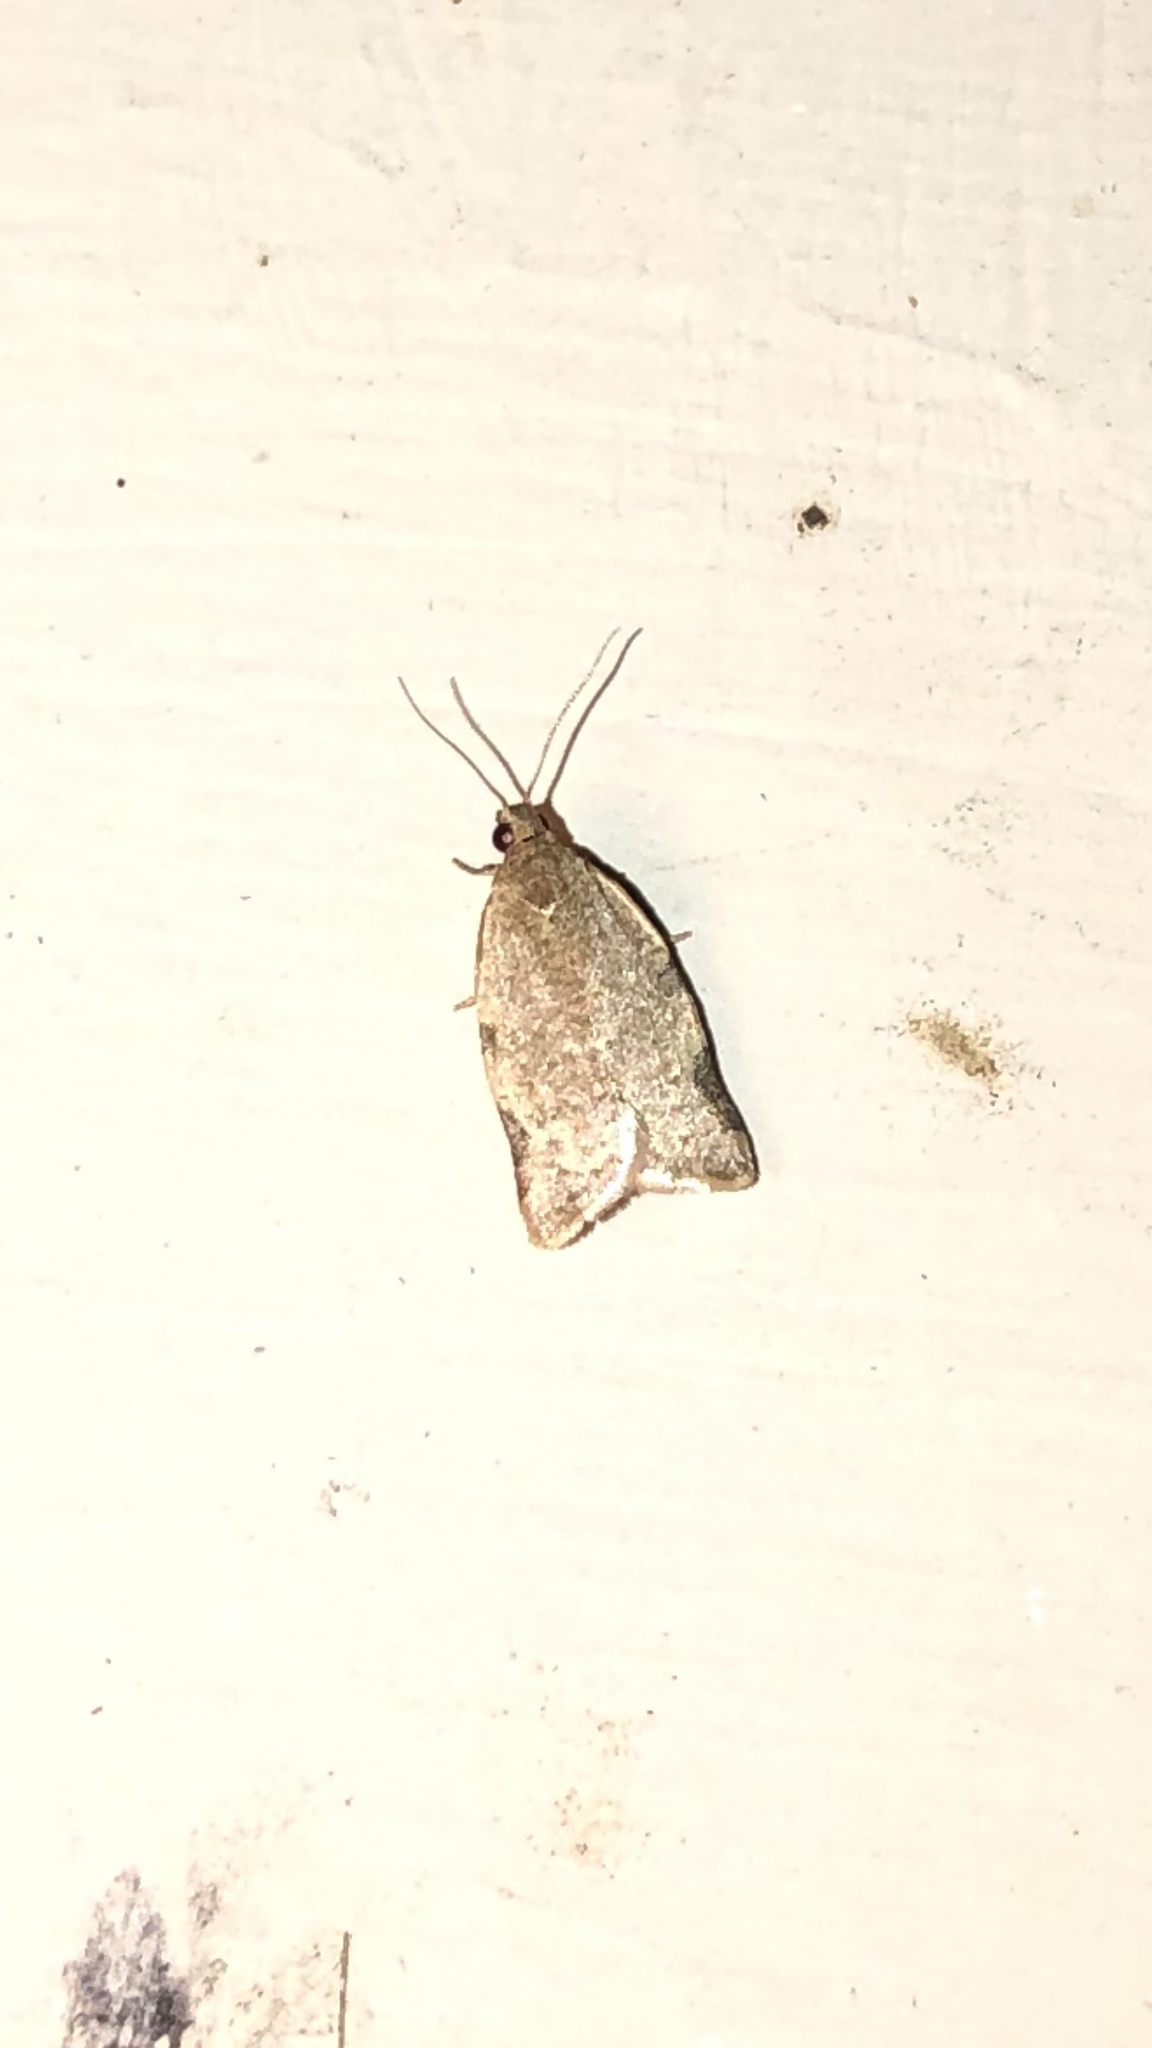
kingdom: Animalia
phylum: Arthropoda
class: Insecta
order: Lepidoptera
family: Tortricidae
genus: Clepsis
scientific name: Clepsis virescana
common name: Greenish apple moth
